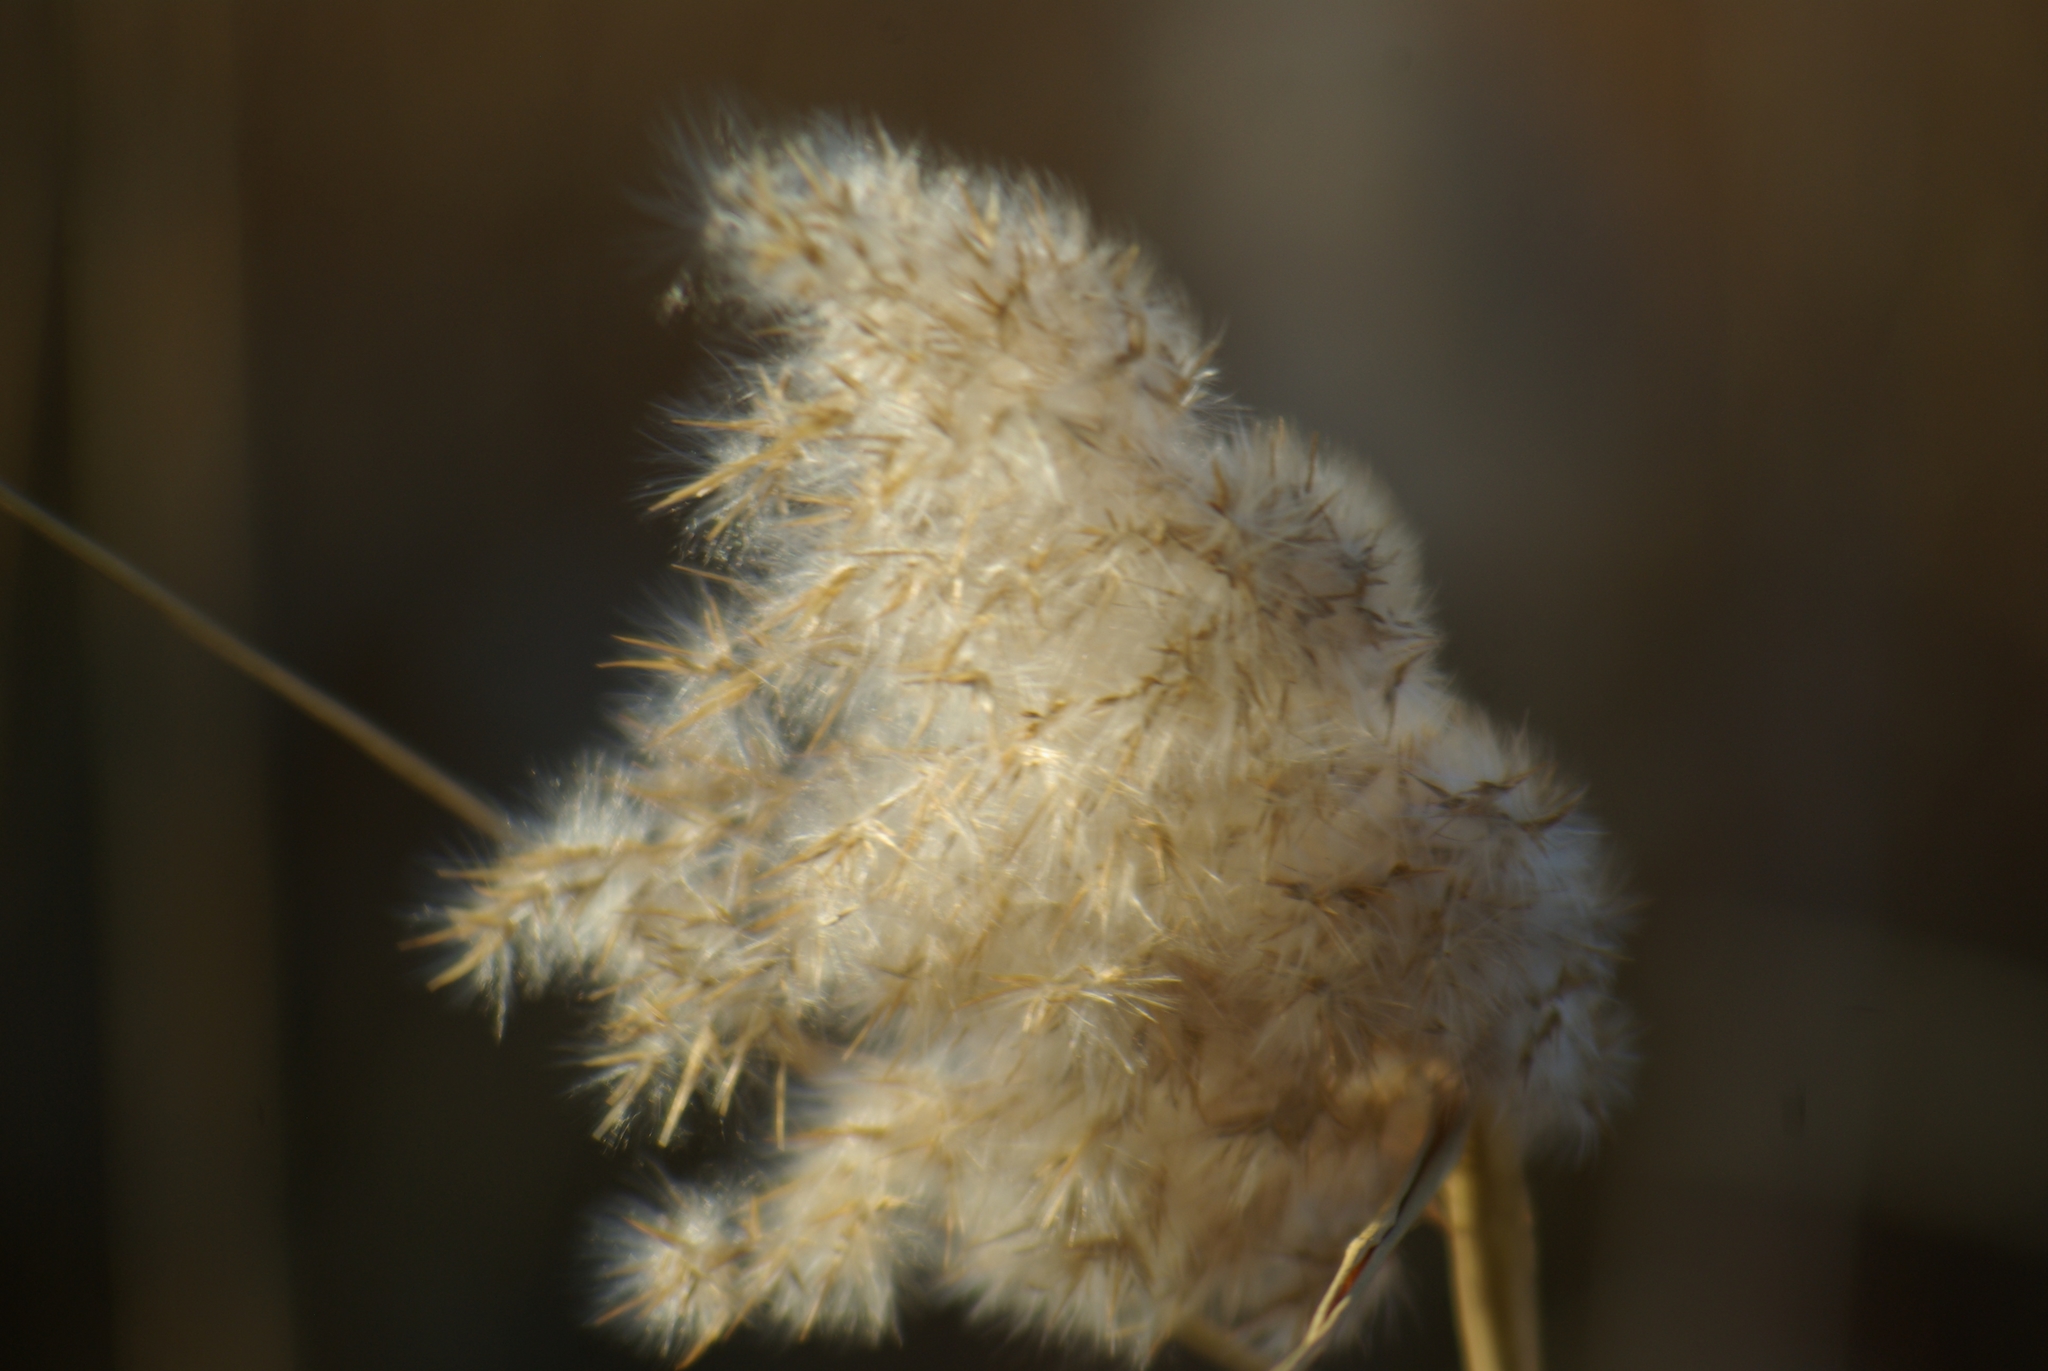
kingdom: Plantae
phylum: Tracheophyta
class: Liliopsida
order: Poales
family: Poaceae
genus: Phragmites
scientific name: Phragmites australis
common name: Common reed
